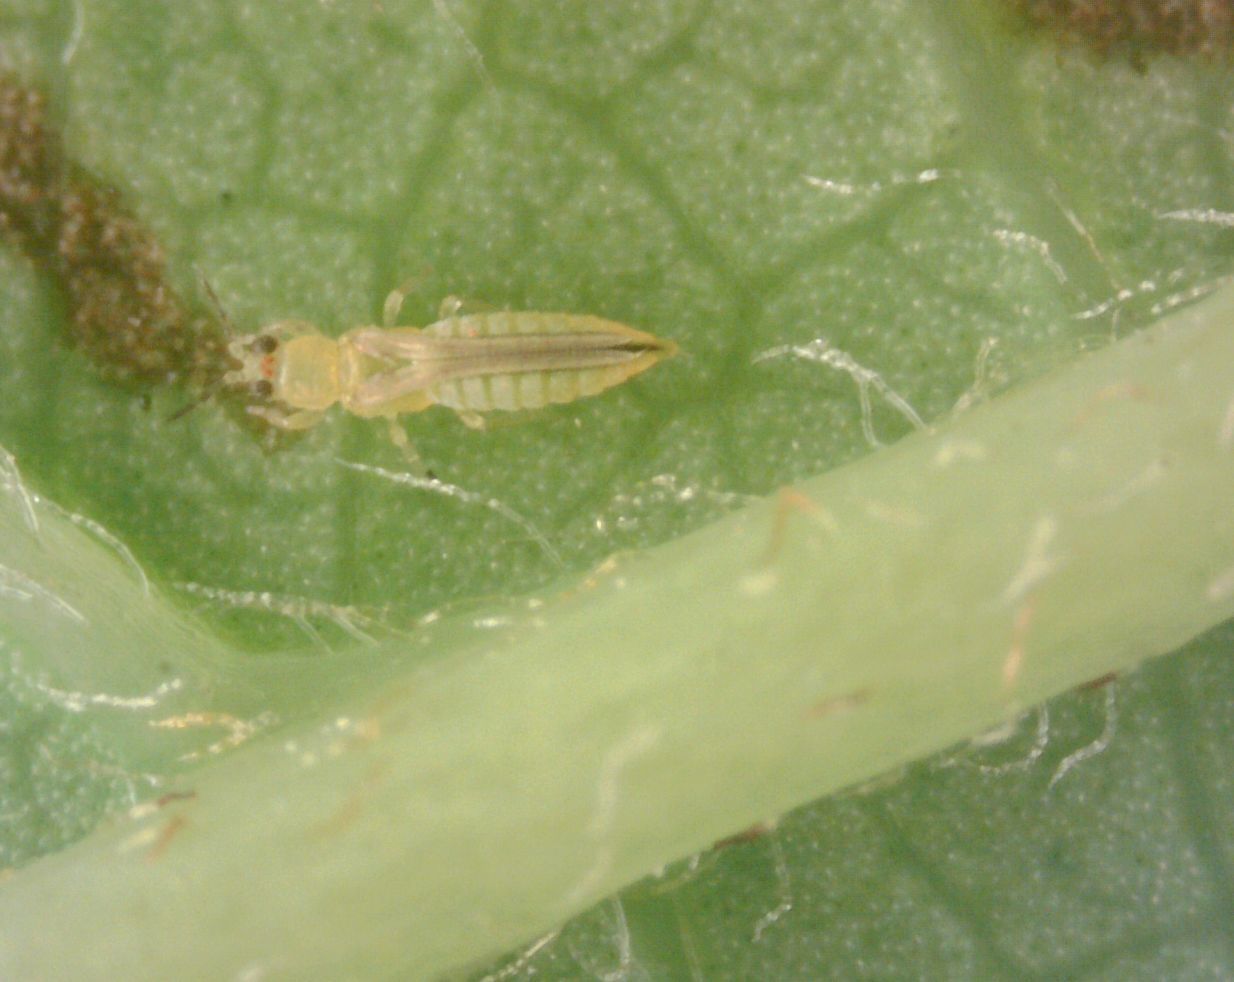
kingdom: Animalia
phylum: Arthropoda
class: Insecta
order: Thysanoptera
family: Thripidae
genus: Scirtothrips
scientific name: Scirtothrips dorsalis
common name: Thrips
